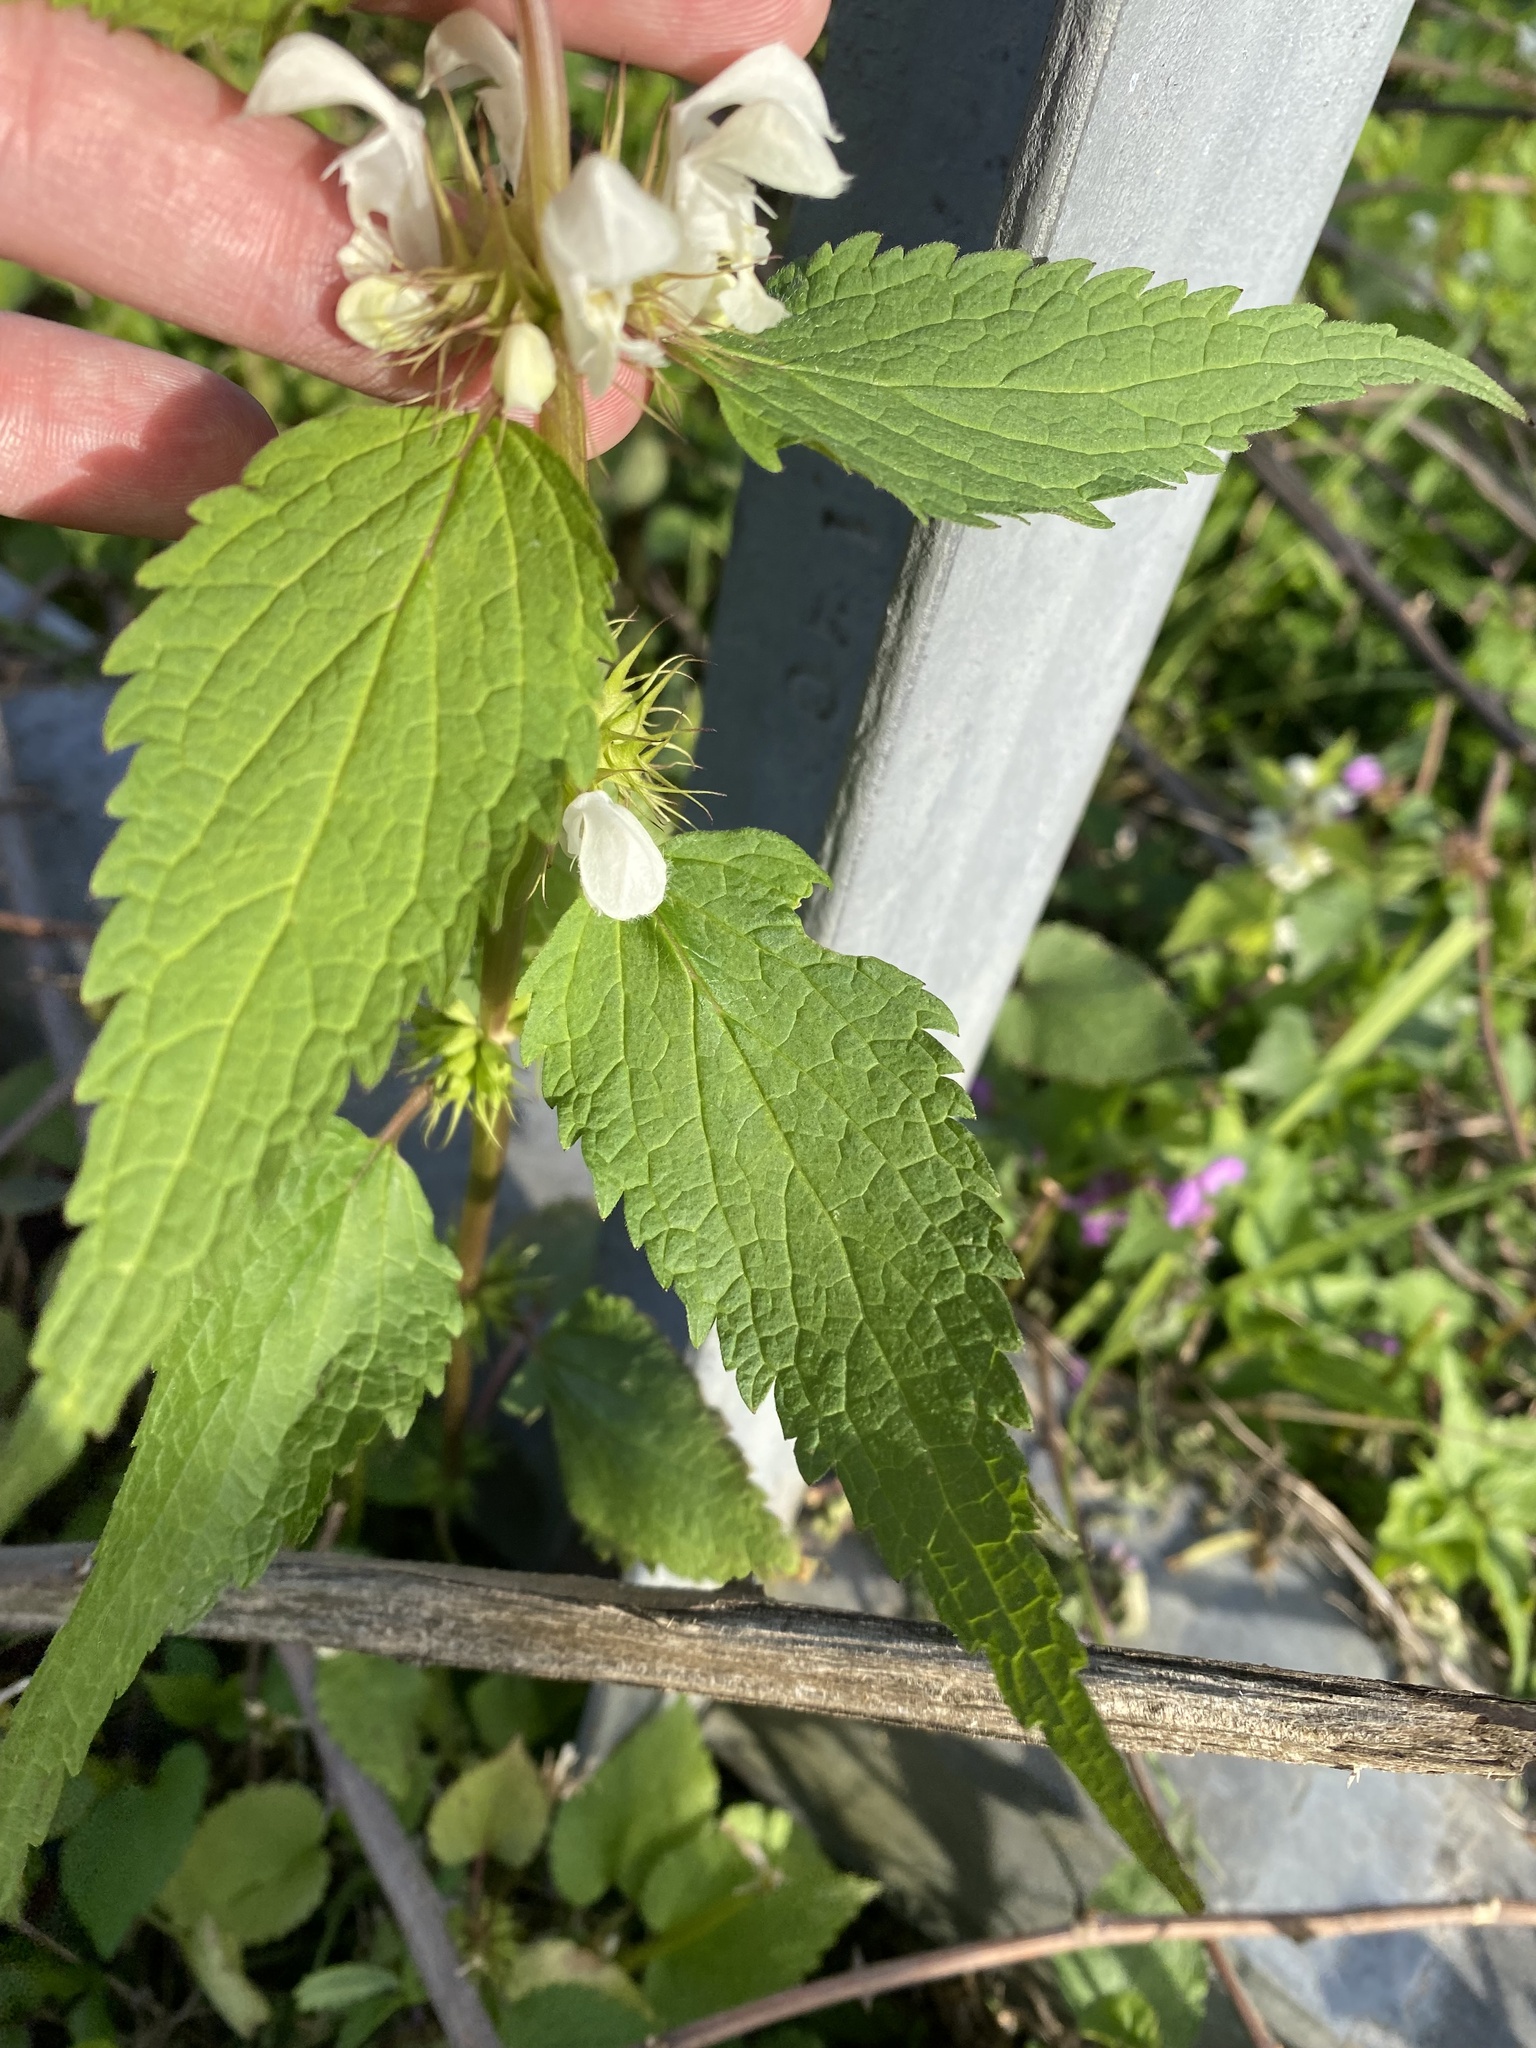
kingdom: Plantae
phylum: Tracheophyta
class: Magnoliopsida
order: Lamiales
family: Lamiaceae
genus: Lamium
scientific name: Lamium album
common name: White dead-nettle
